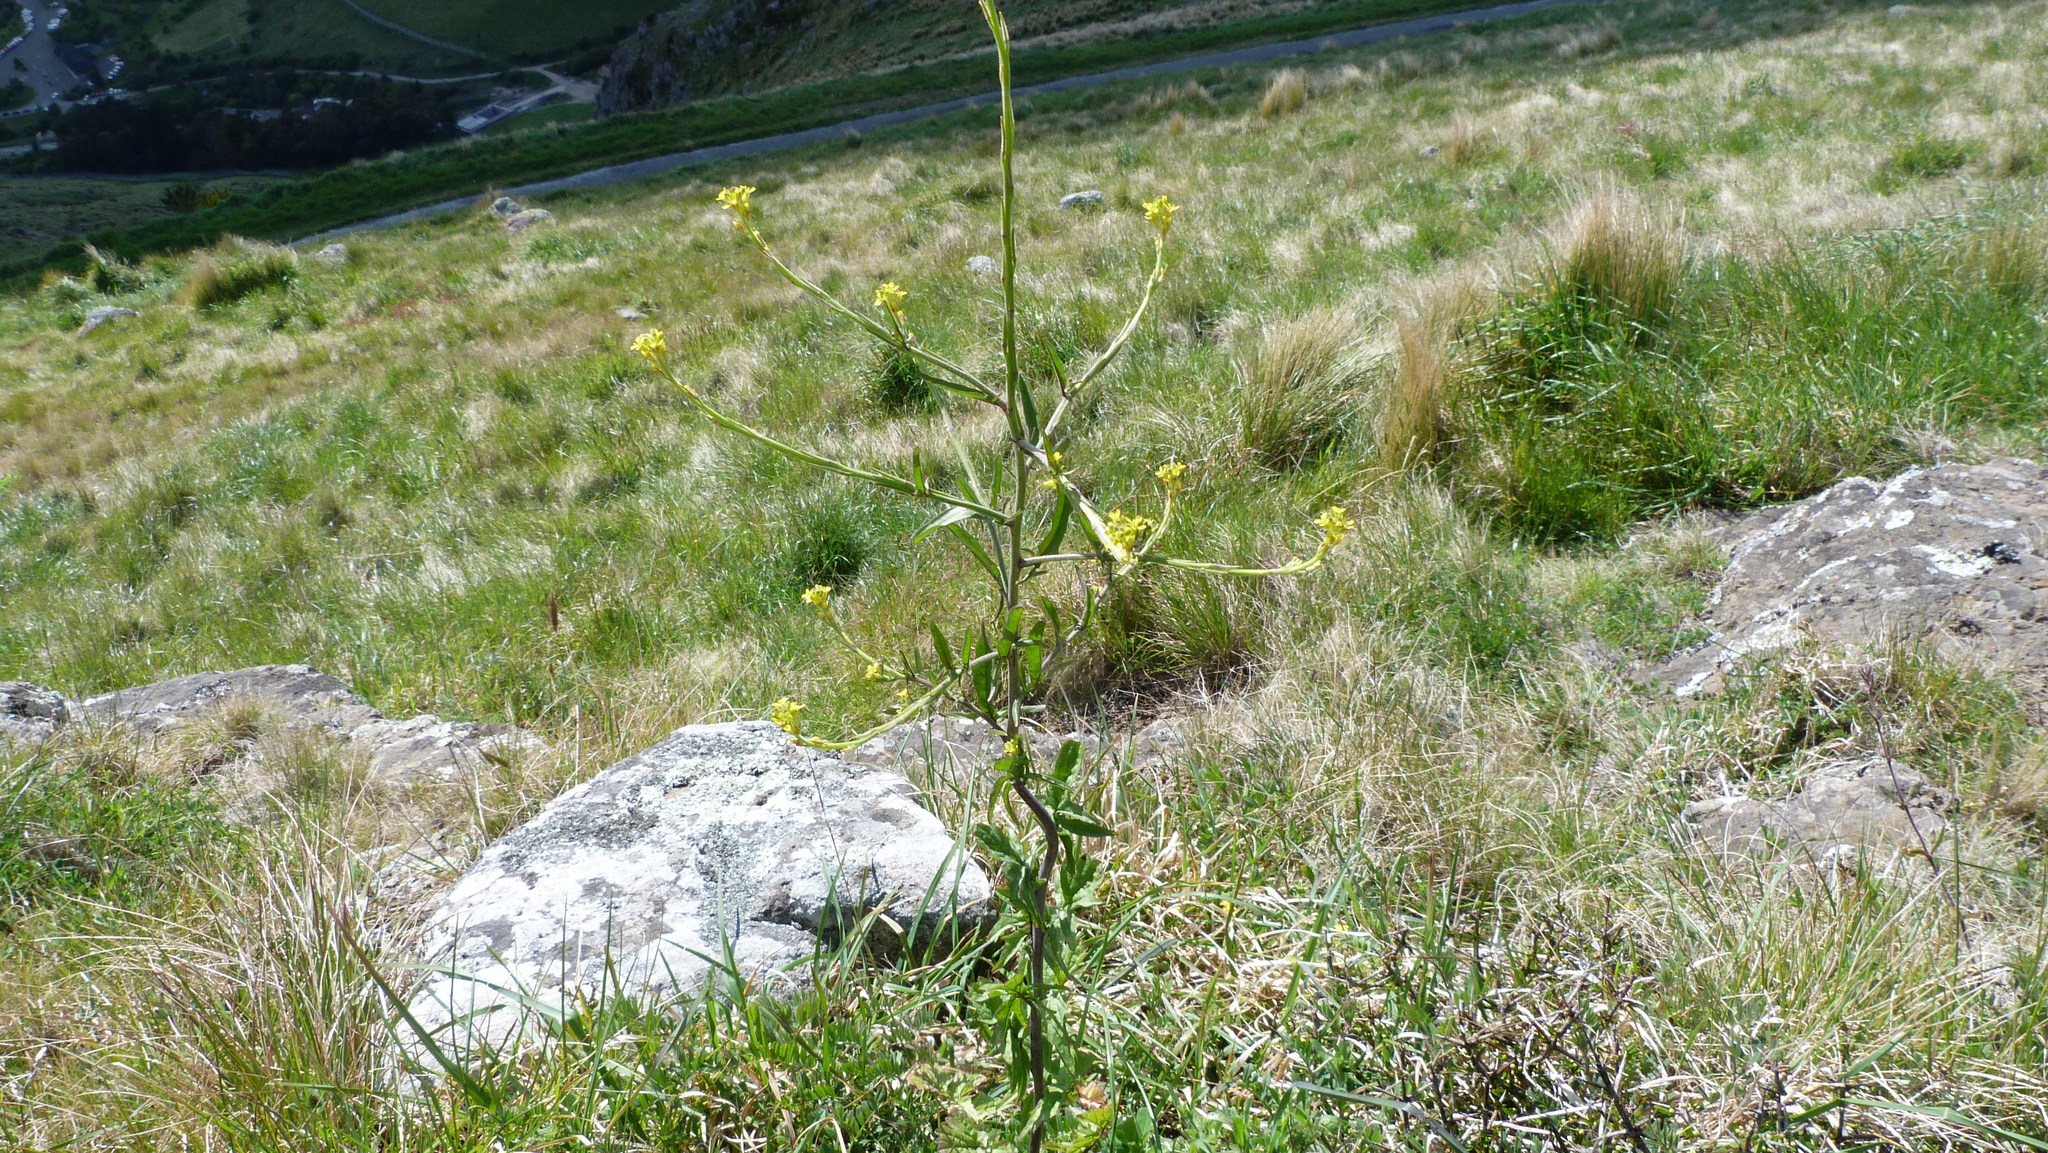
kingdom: Plantae
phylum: Tracheophyta
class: Magnoliopsida
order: Brassicales
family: Brassicaceae
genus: Sisymbrium
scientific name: Sisymbrium officinale
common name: Hedge mustard
